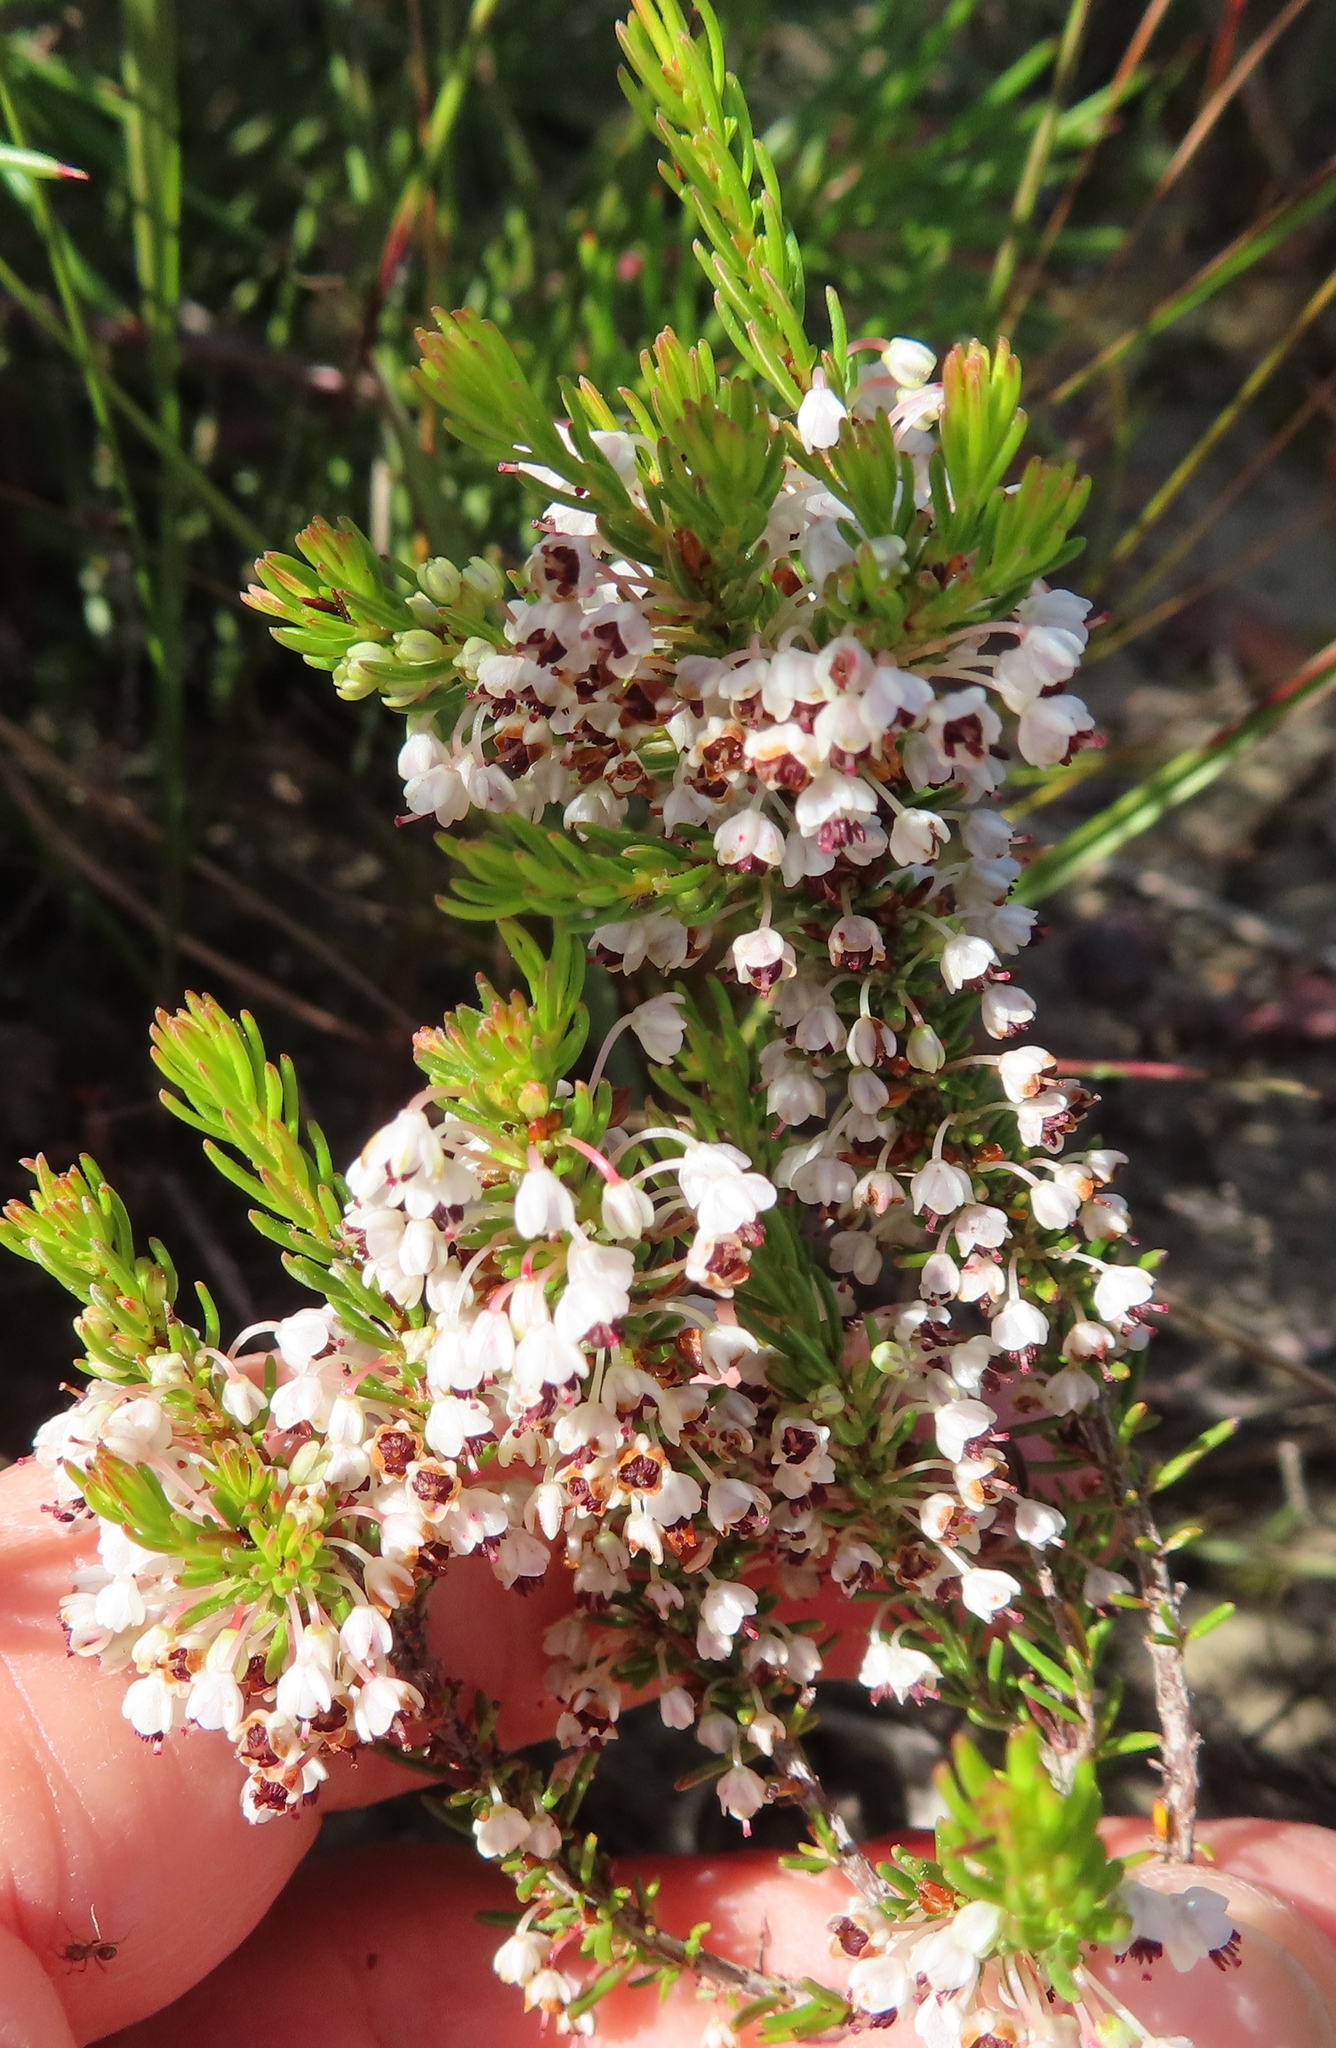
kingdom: Plantae
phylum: Tracheophyta
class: Magnoliopsida
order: Ericales
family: Ericaceae
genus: Erica
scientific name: Erica rubiginosa
